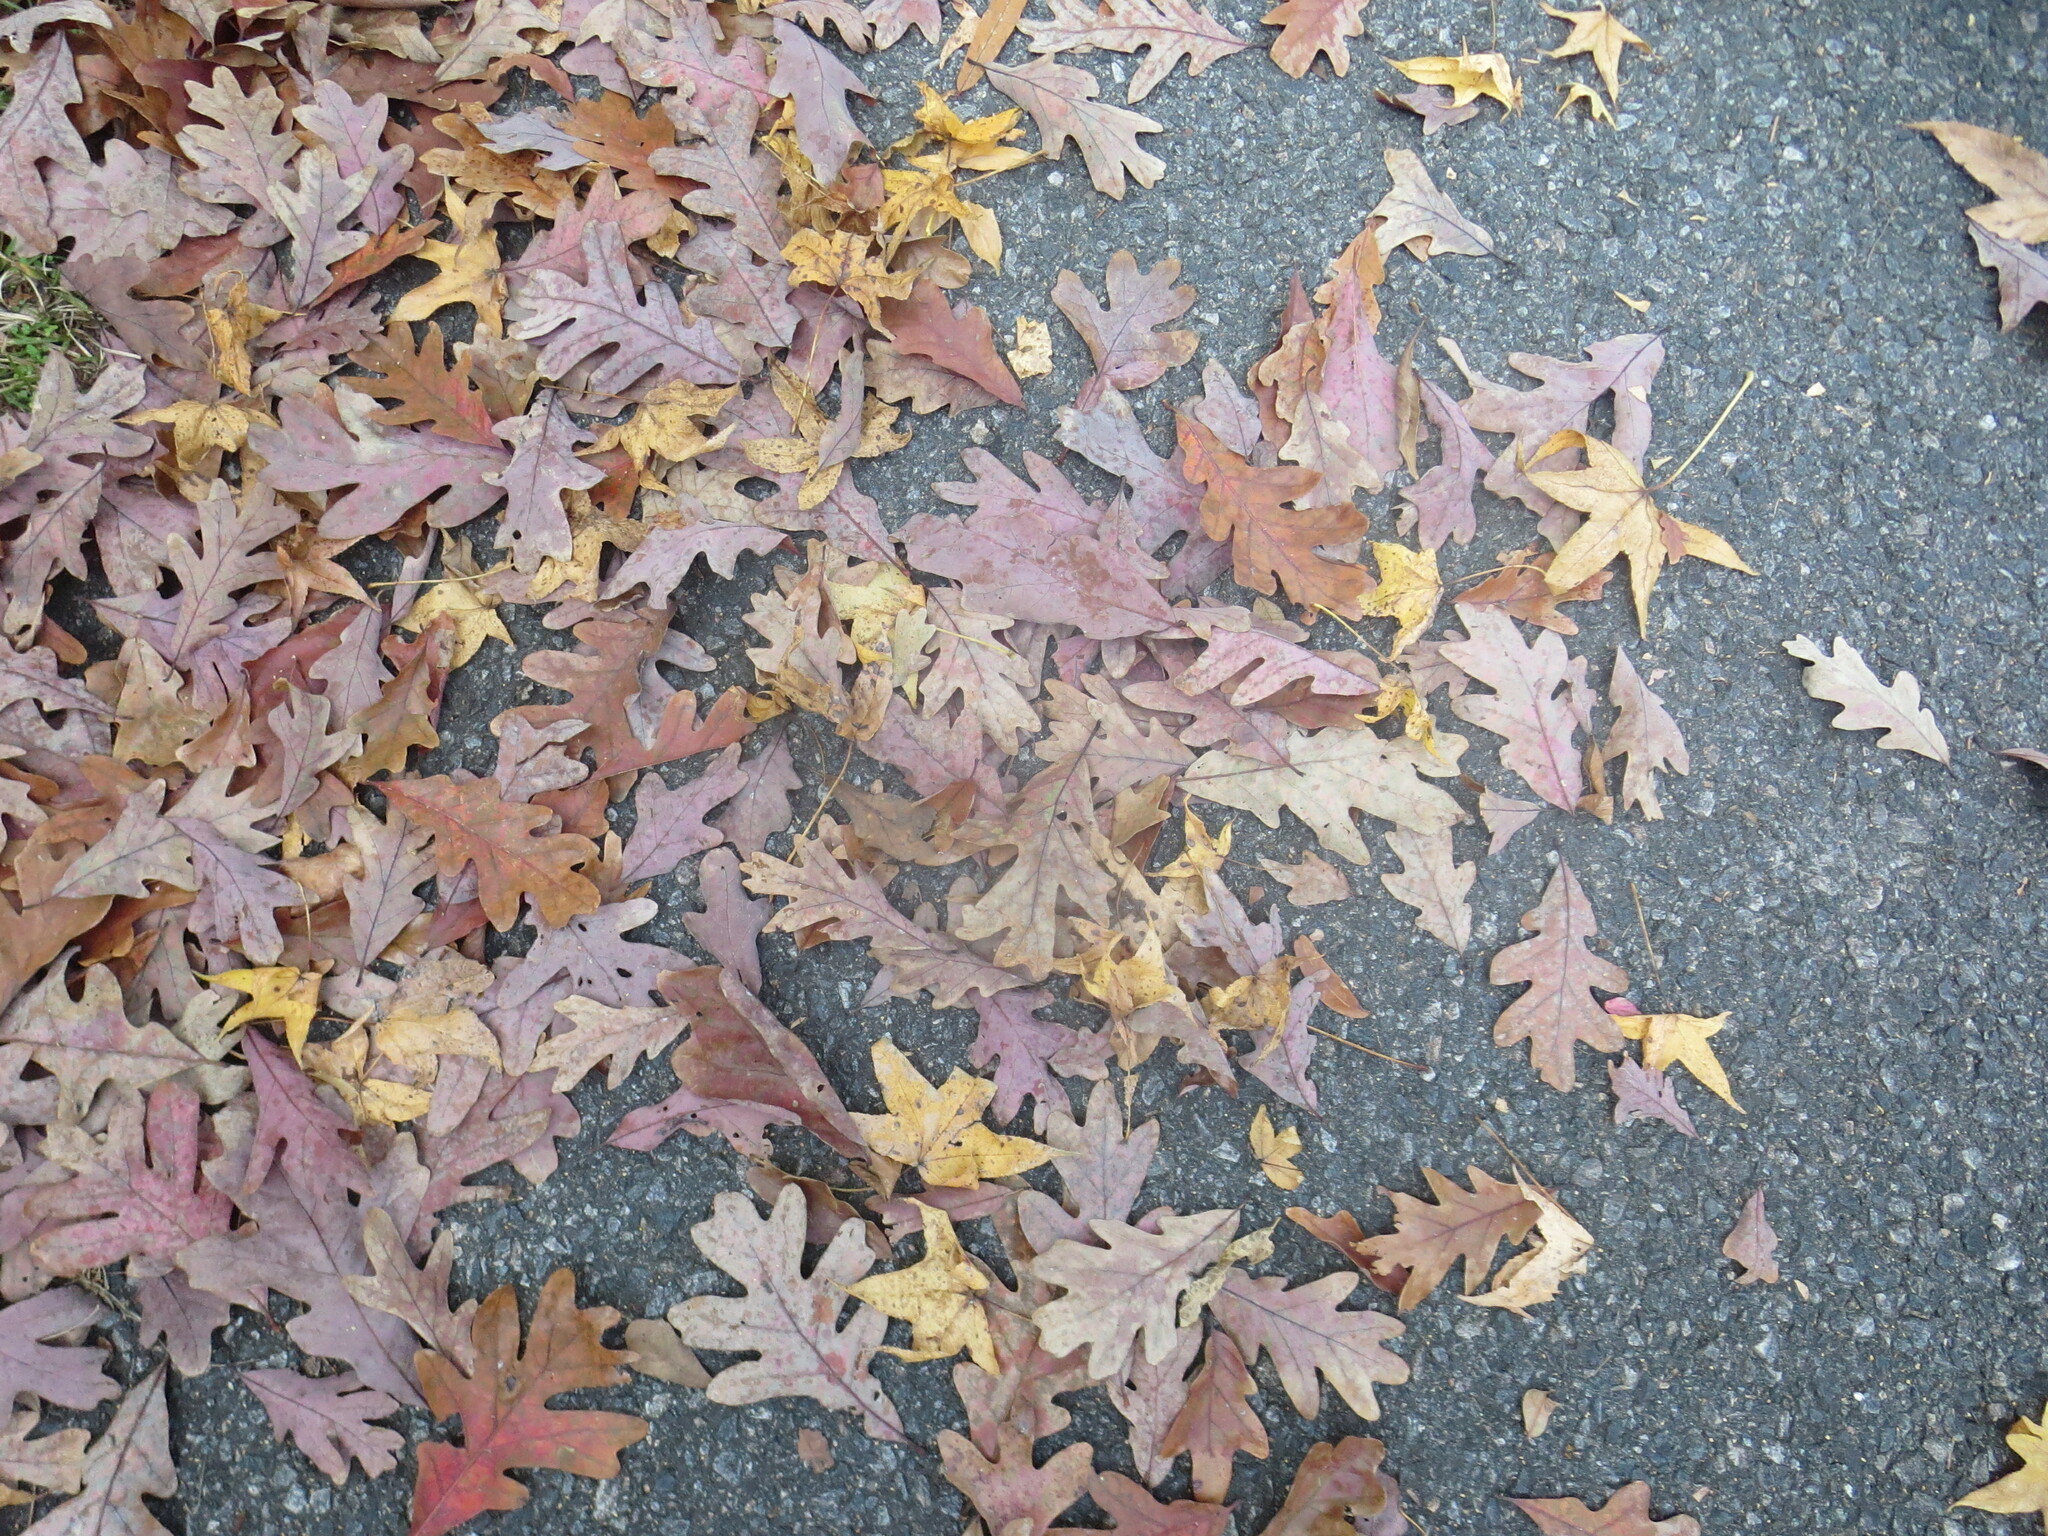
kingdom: Plantae
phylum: Tracheophyta
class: Magnoliopsida
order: Fagales
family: Fagaceae
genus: Quercus
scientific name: Quercus alba
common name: White oak
